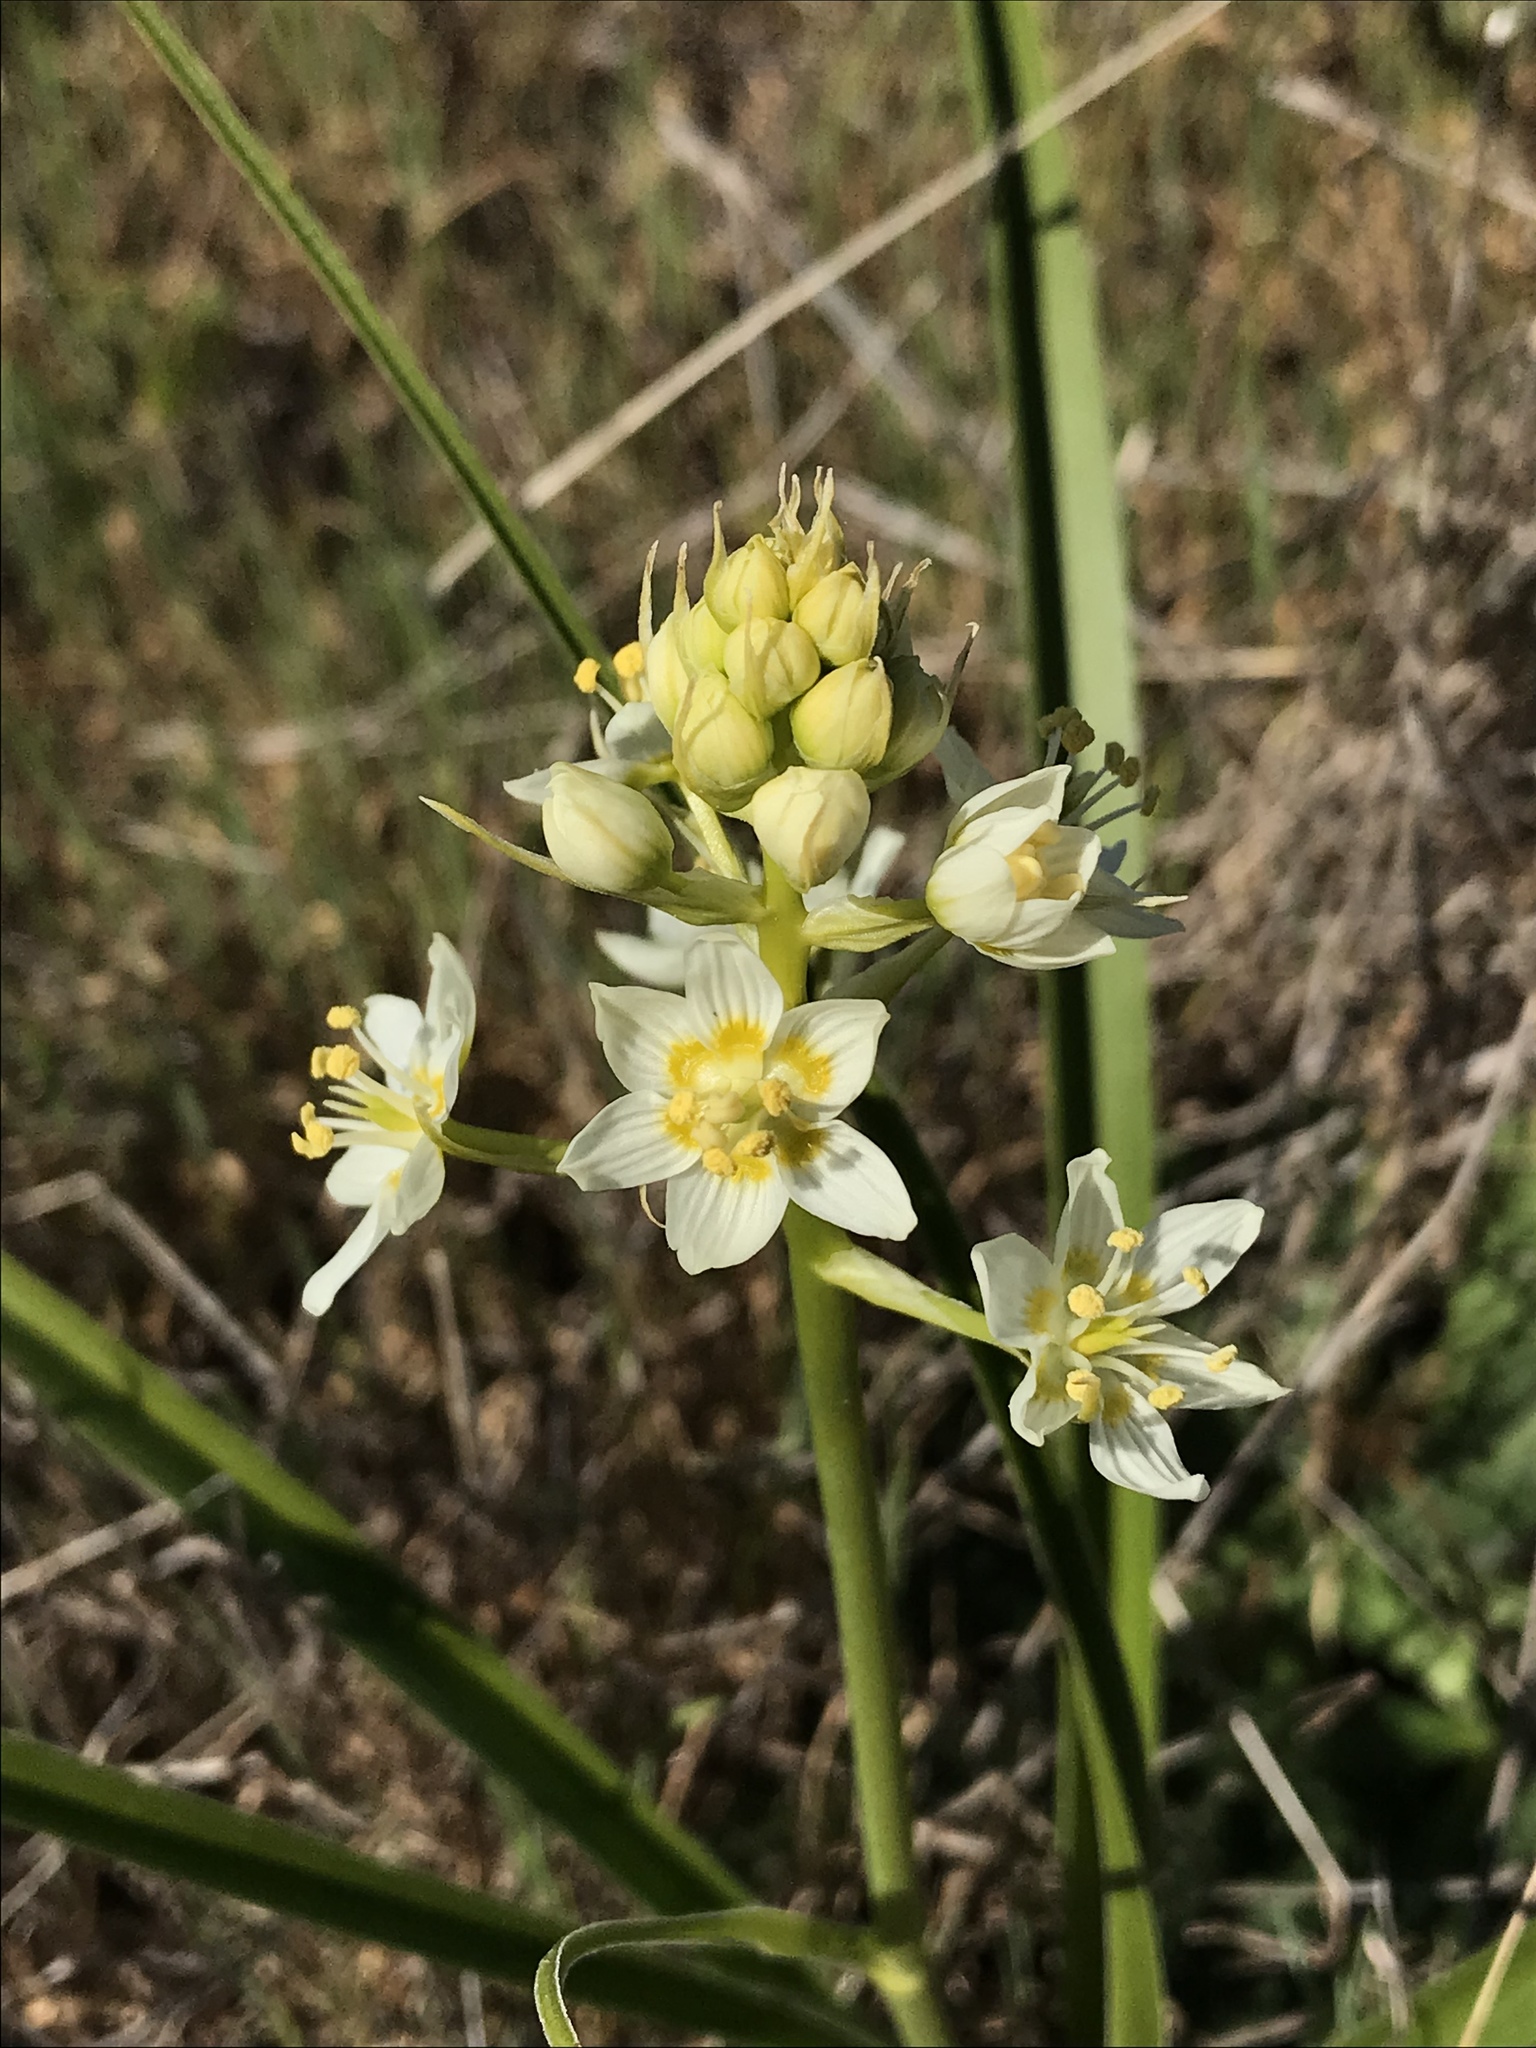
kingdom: Plantae
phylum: Tracheophyta
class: Liliopsida
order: Liliales
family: Melanthiaceae
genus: Toxicoscordion
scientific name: Toxicoscordion fremontii
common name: Fremont's death camas
